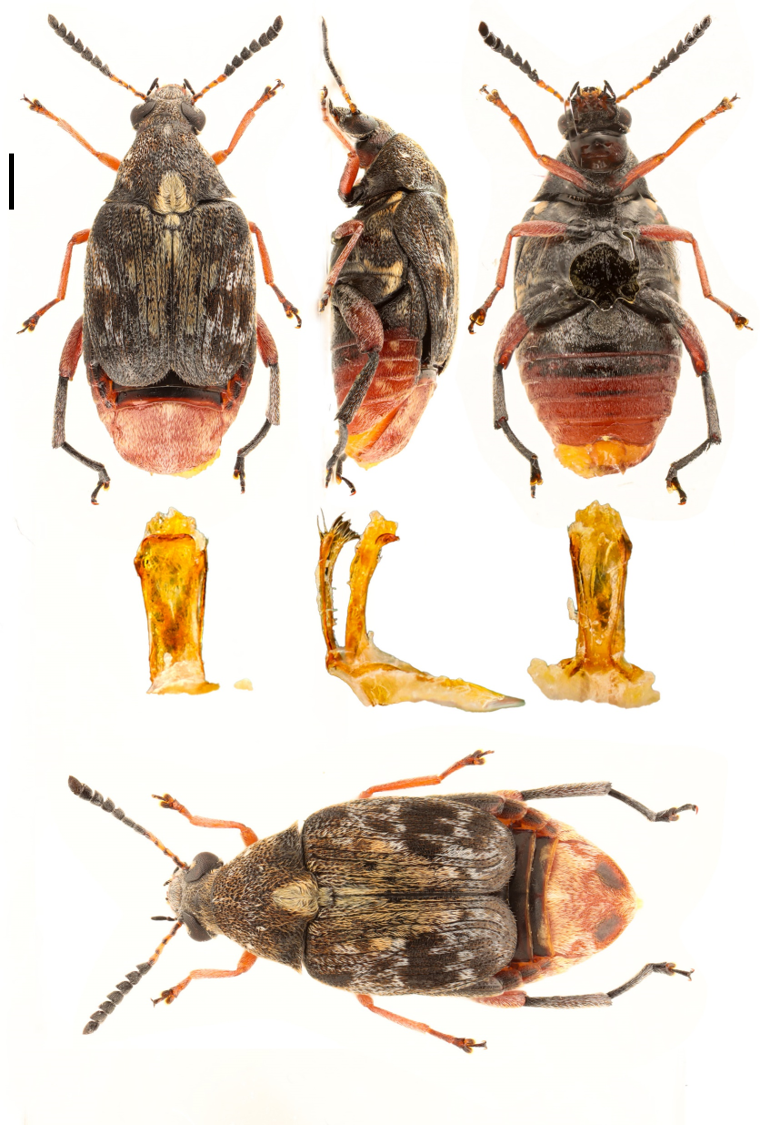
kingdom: Animalia
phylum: Arthropoda
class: Insecta
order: Coleoptera
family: Chrysomelidae
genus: Megabruchidius
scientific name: Megabruchidius dorsalis
